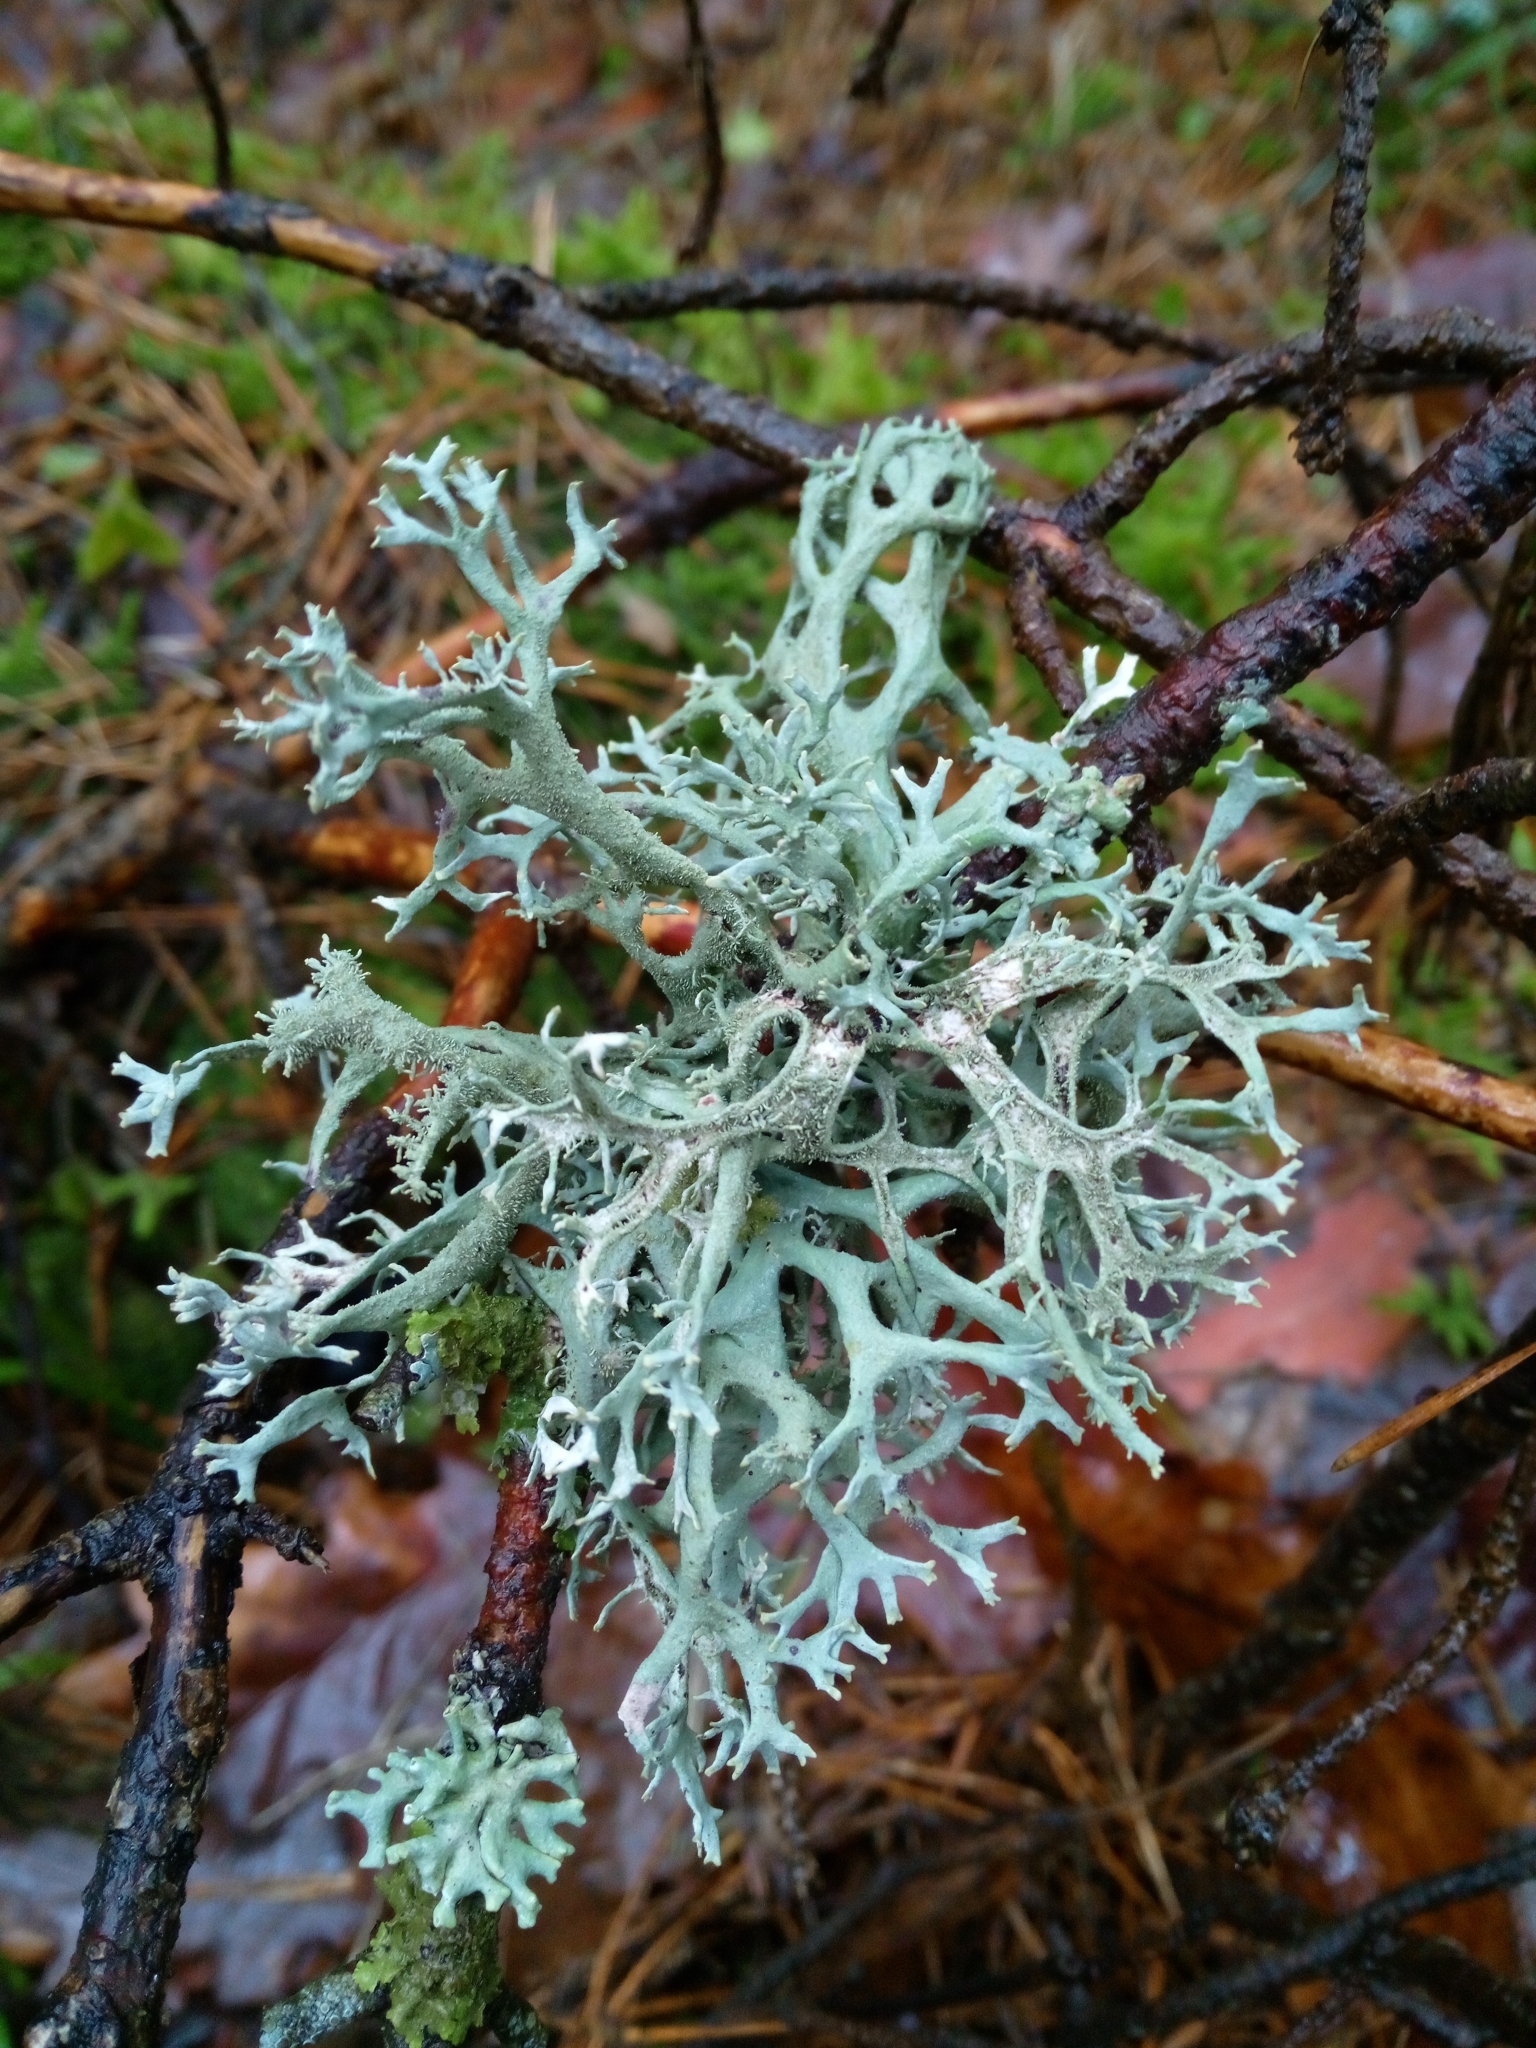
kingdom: Fungi
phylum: Ascomycota
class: Lecanoromycetes
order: Lecanorales
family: Parmeliaceae
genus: Pseudevernia
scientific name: Pseudevernia furfuracea
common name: Tree moss
